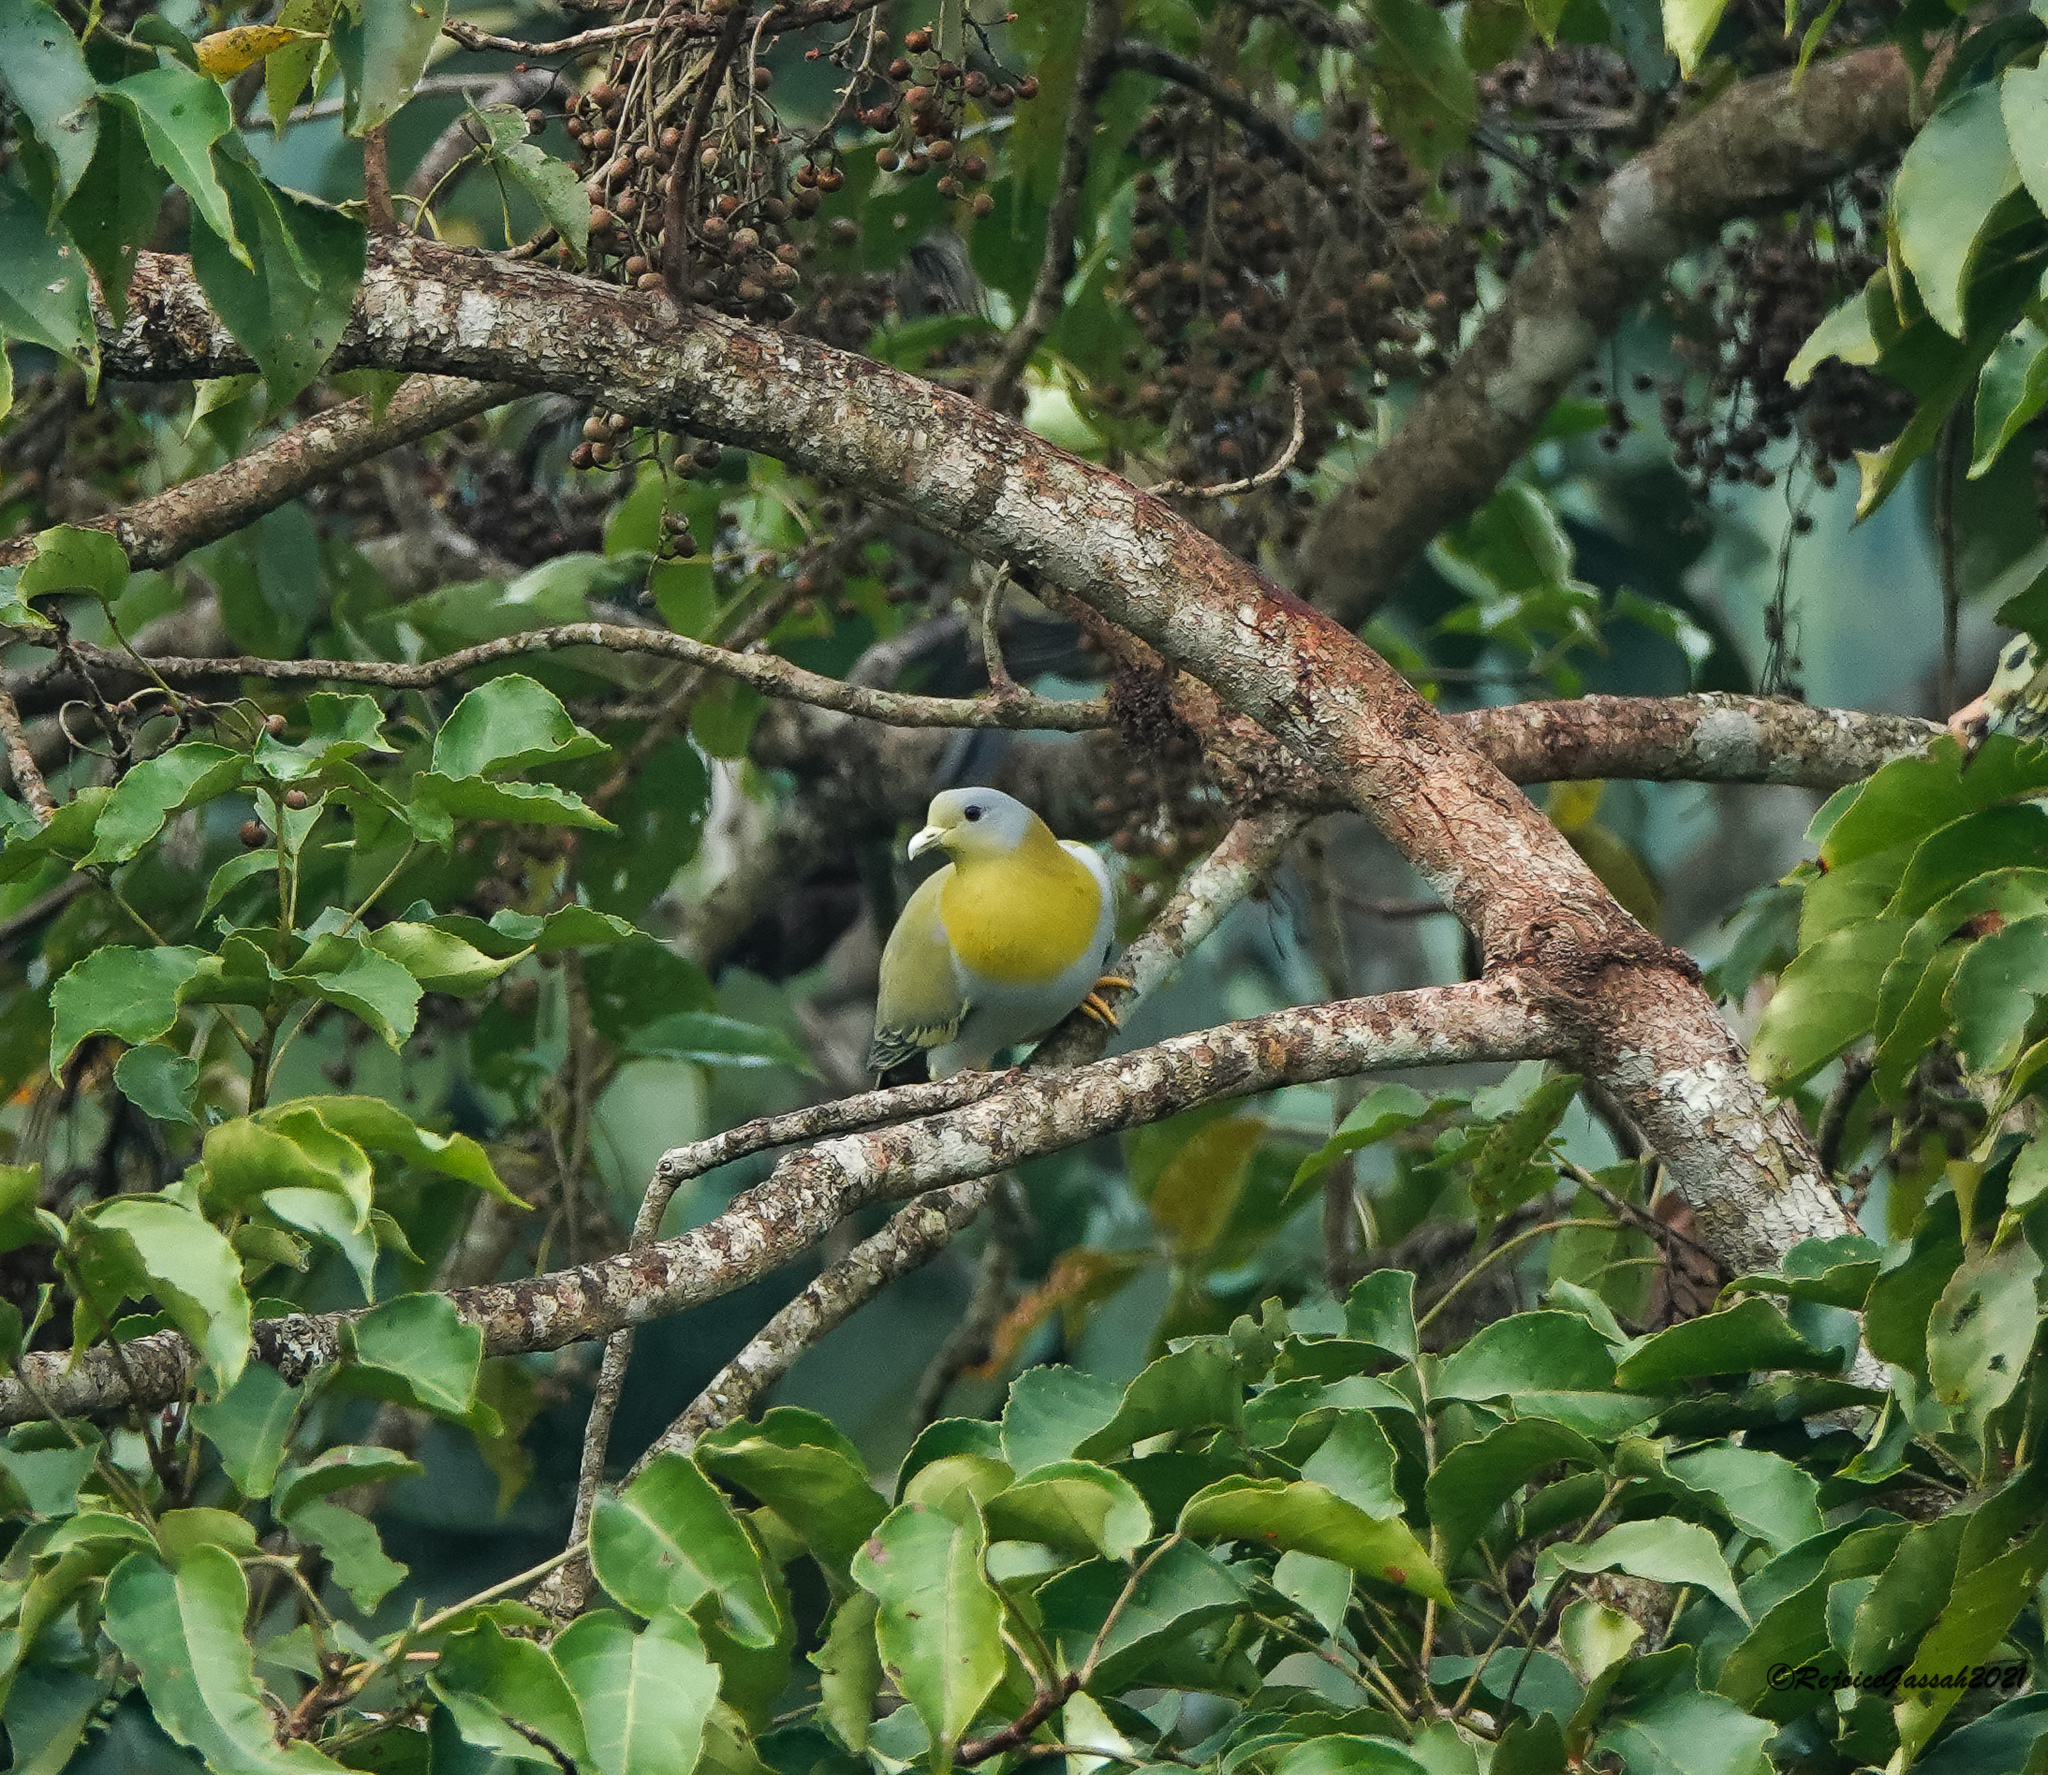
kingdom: Animalia
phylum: Chordata
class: Aves
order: Columbiformes
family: Columbidae
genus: Treron
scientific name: Treron phoenicopterus
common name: Yellow-footed green pigeon
